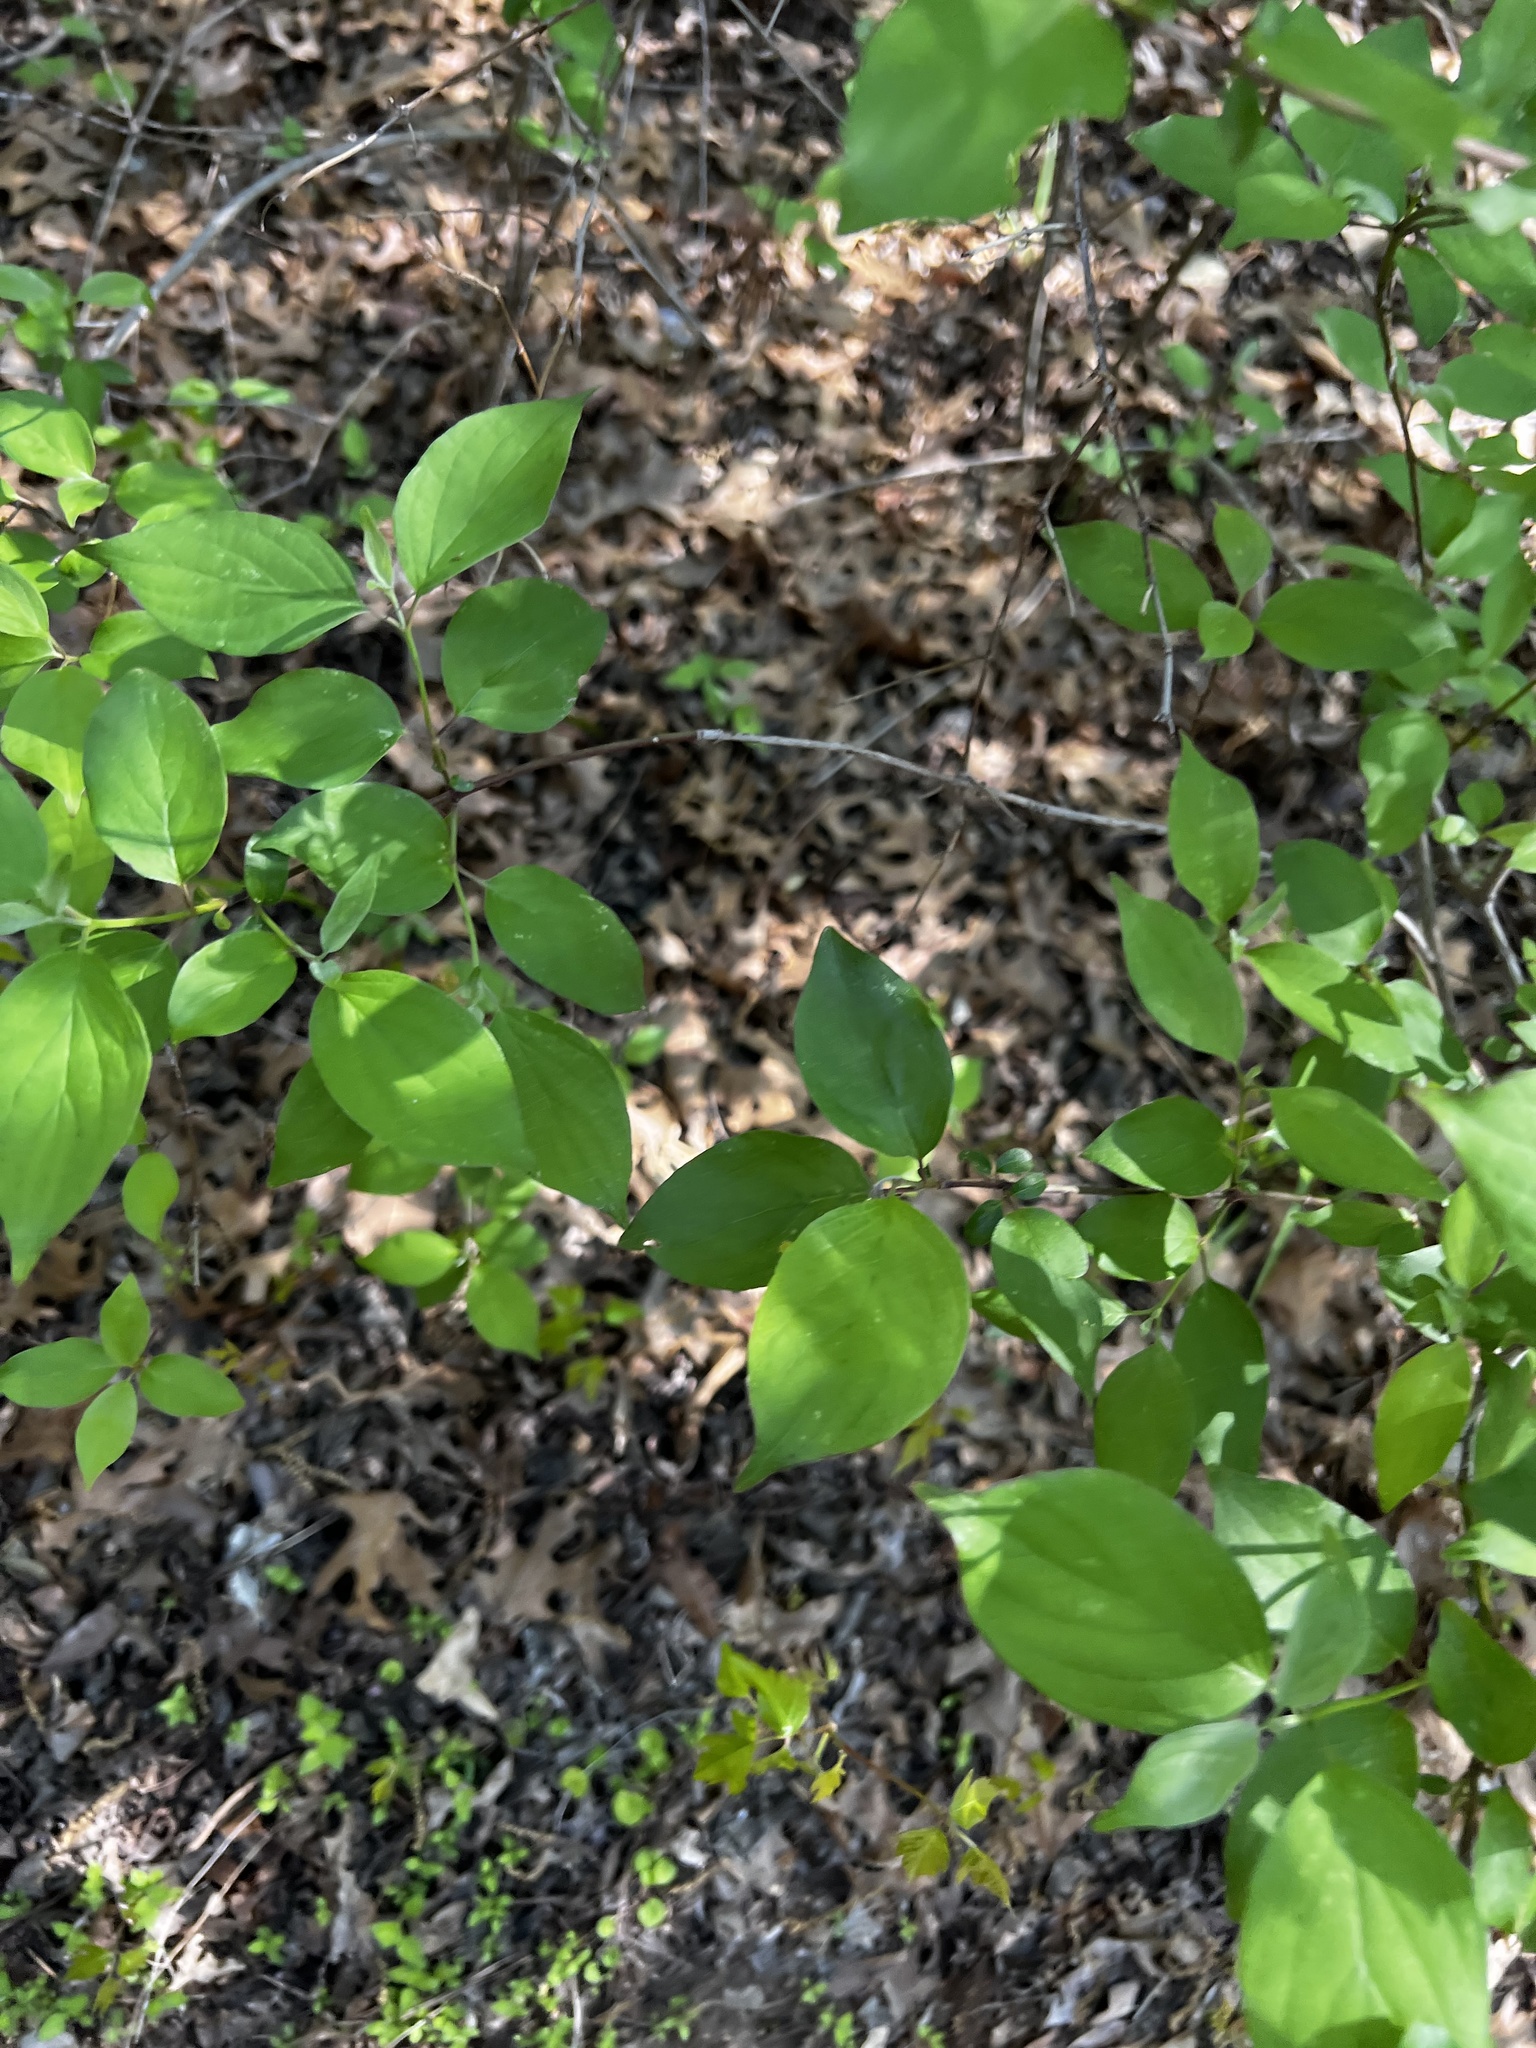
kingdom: Plantae
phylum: Tracheophyta
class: Magnoliopsida
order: Cornales
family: Cornaceae
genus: Cornus
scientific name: Cornus drummondii
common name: Rough-leaf dogwood
